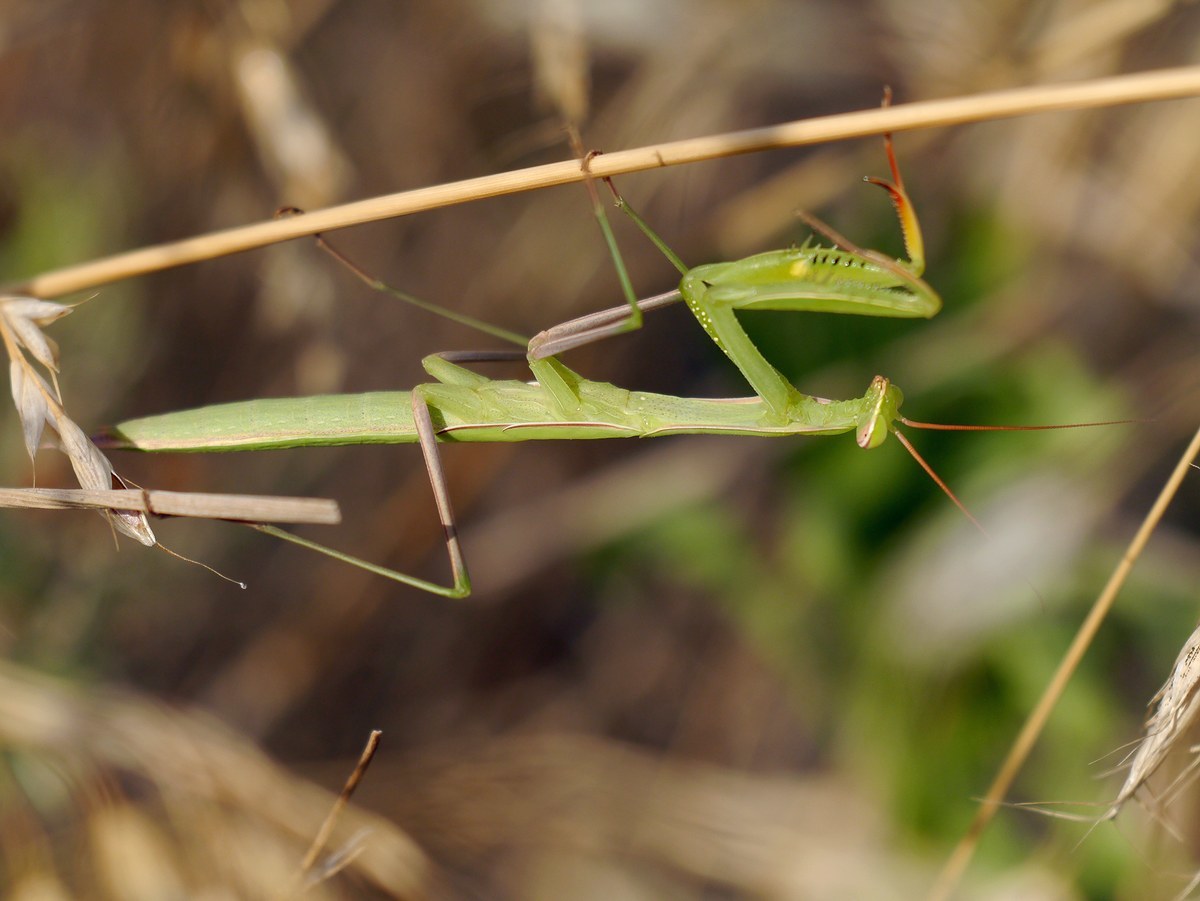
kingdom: Animalia
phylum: Arthropoda
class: Insecta
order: Mantodea
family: Mantidae
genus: Mantis
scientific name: Mantis religiosa
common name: Praying mantis
